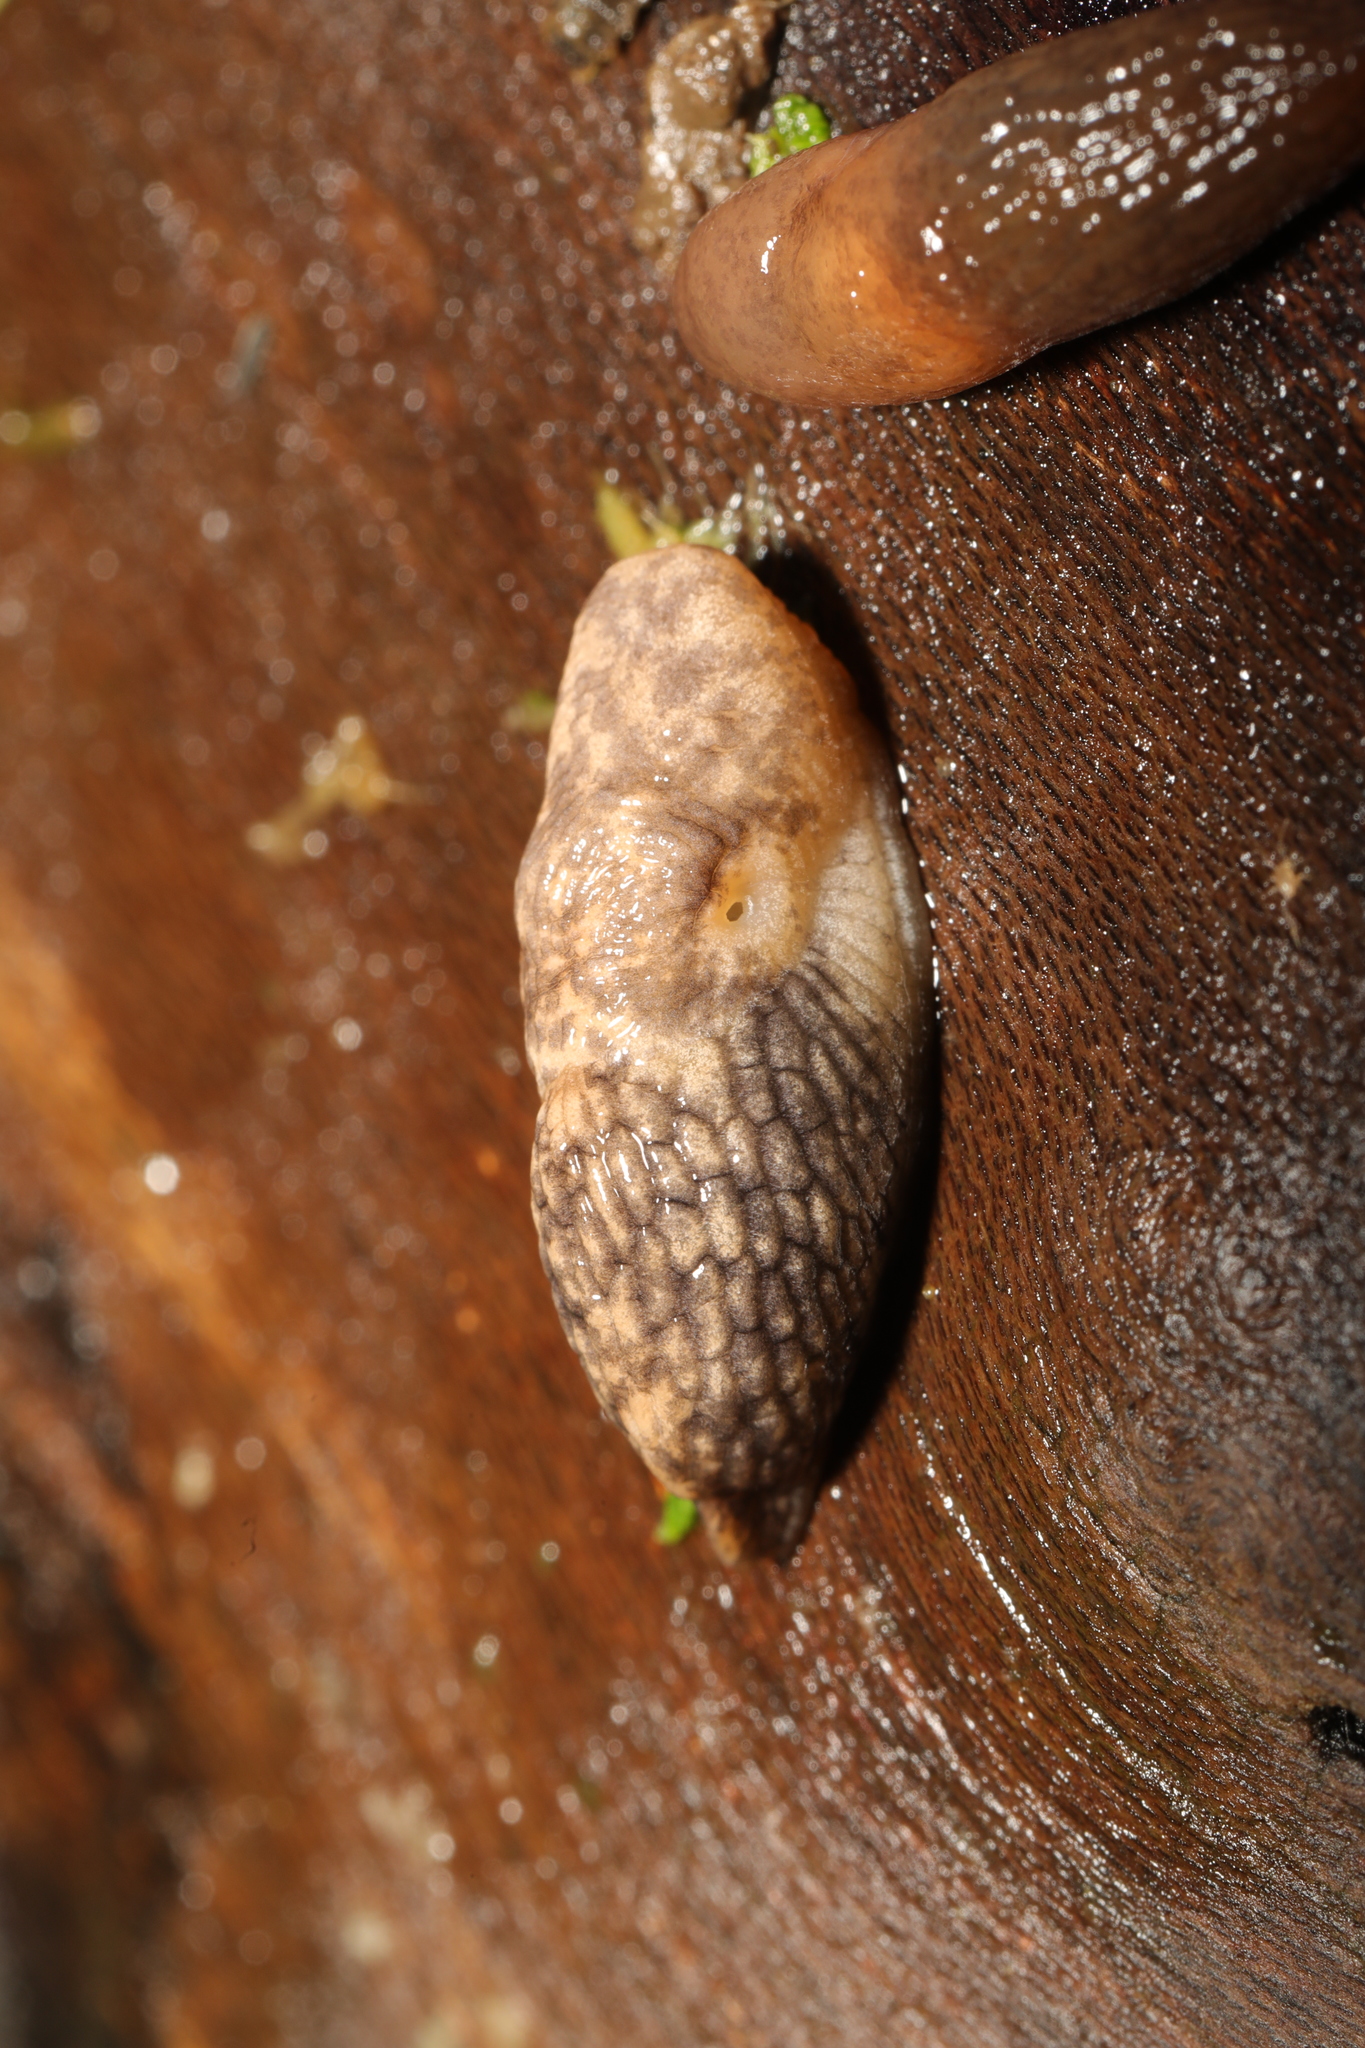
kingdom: Animalia
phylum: Mollusca
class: Gastropoda
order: Stylommatophora
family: Agriolimacidae
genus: Deroceras
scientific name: Deroceras reticulatum
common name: Gray field slug
